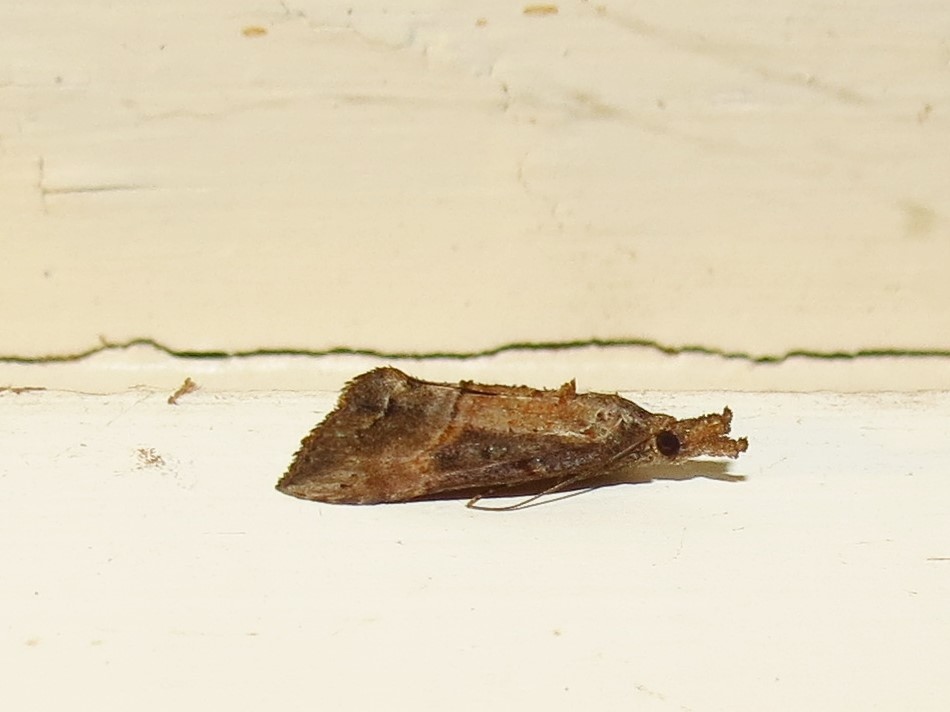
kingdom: Animalia
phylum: Arthropoda
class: Insecta
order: Lepidoptera
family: Erebidae
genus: Hypena
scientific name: Hypena scabra
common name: Green cloverworm
